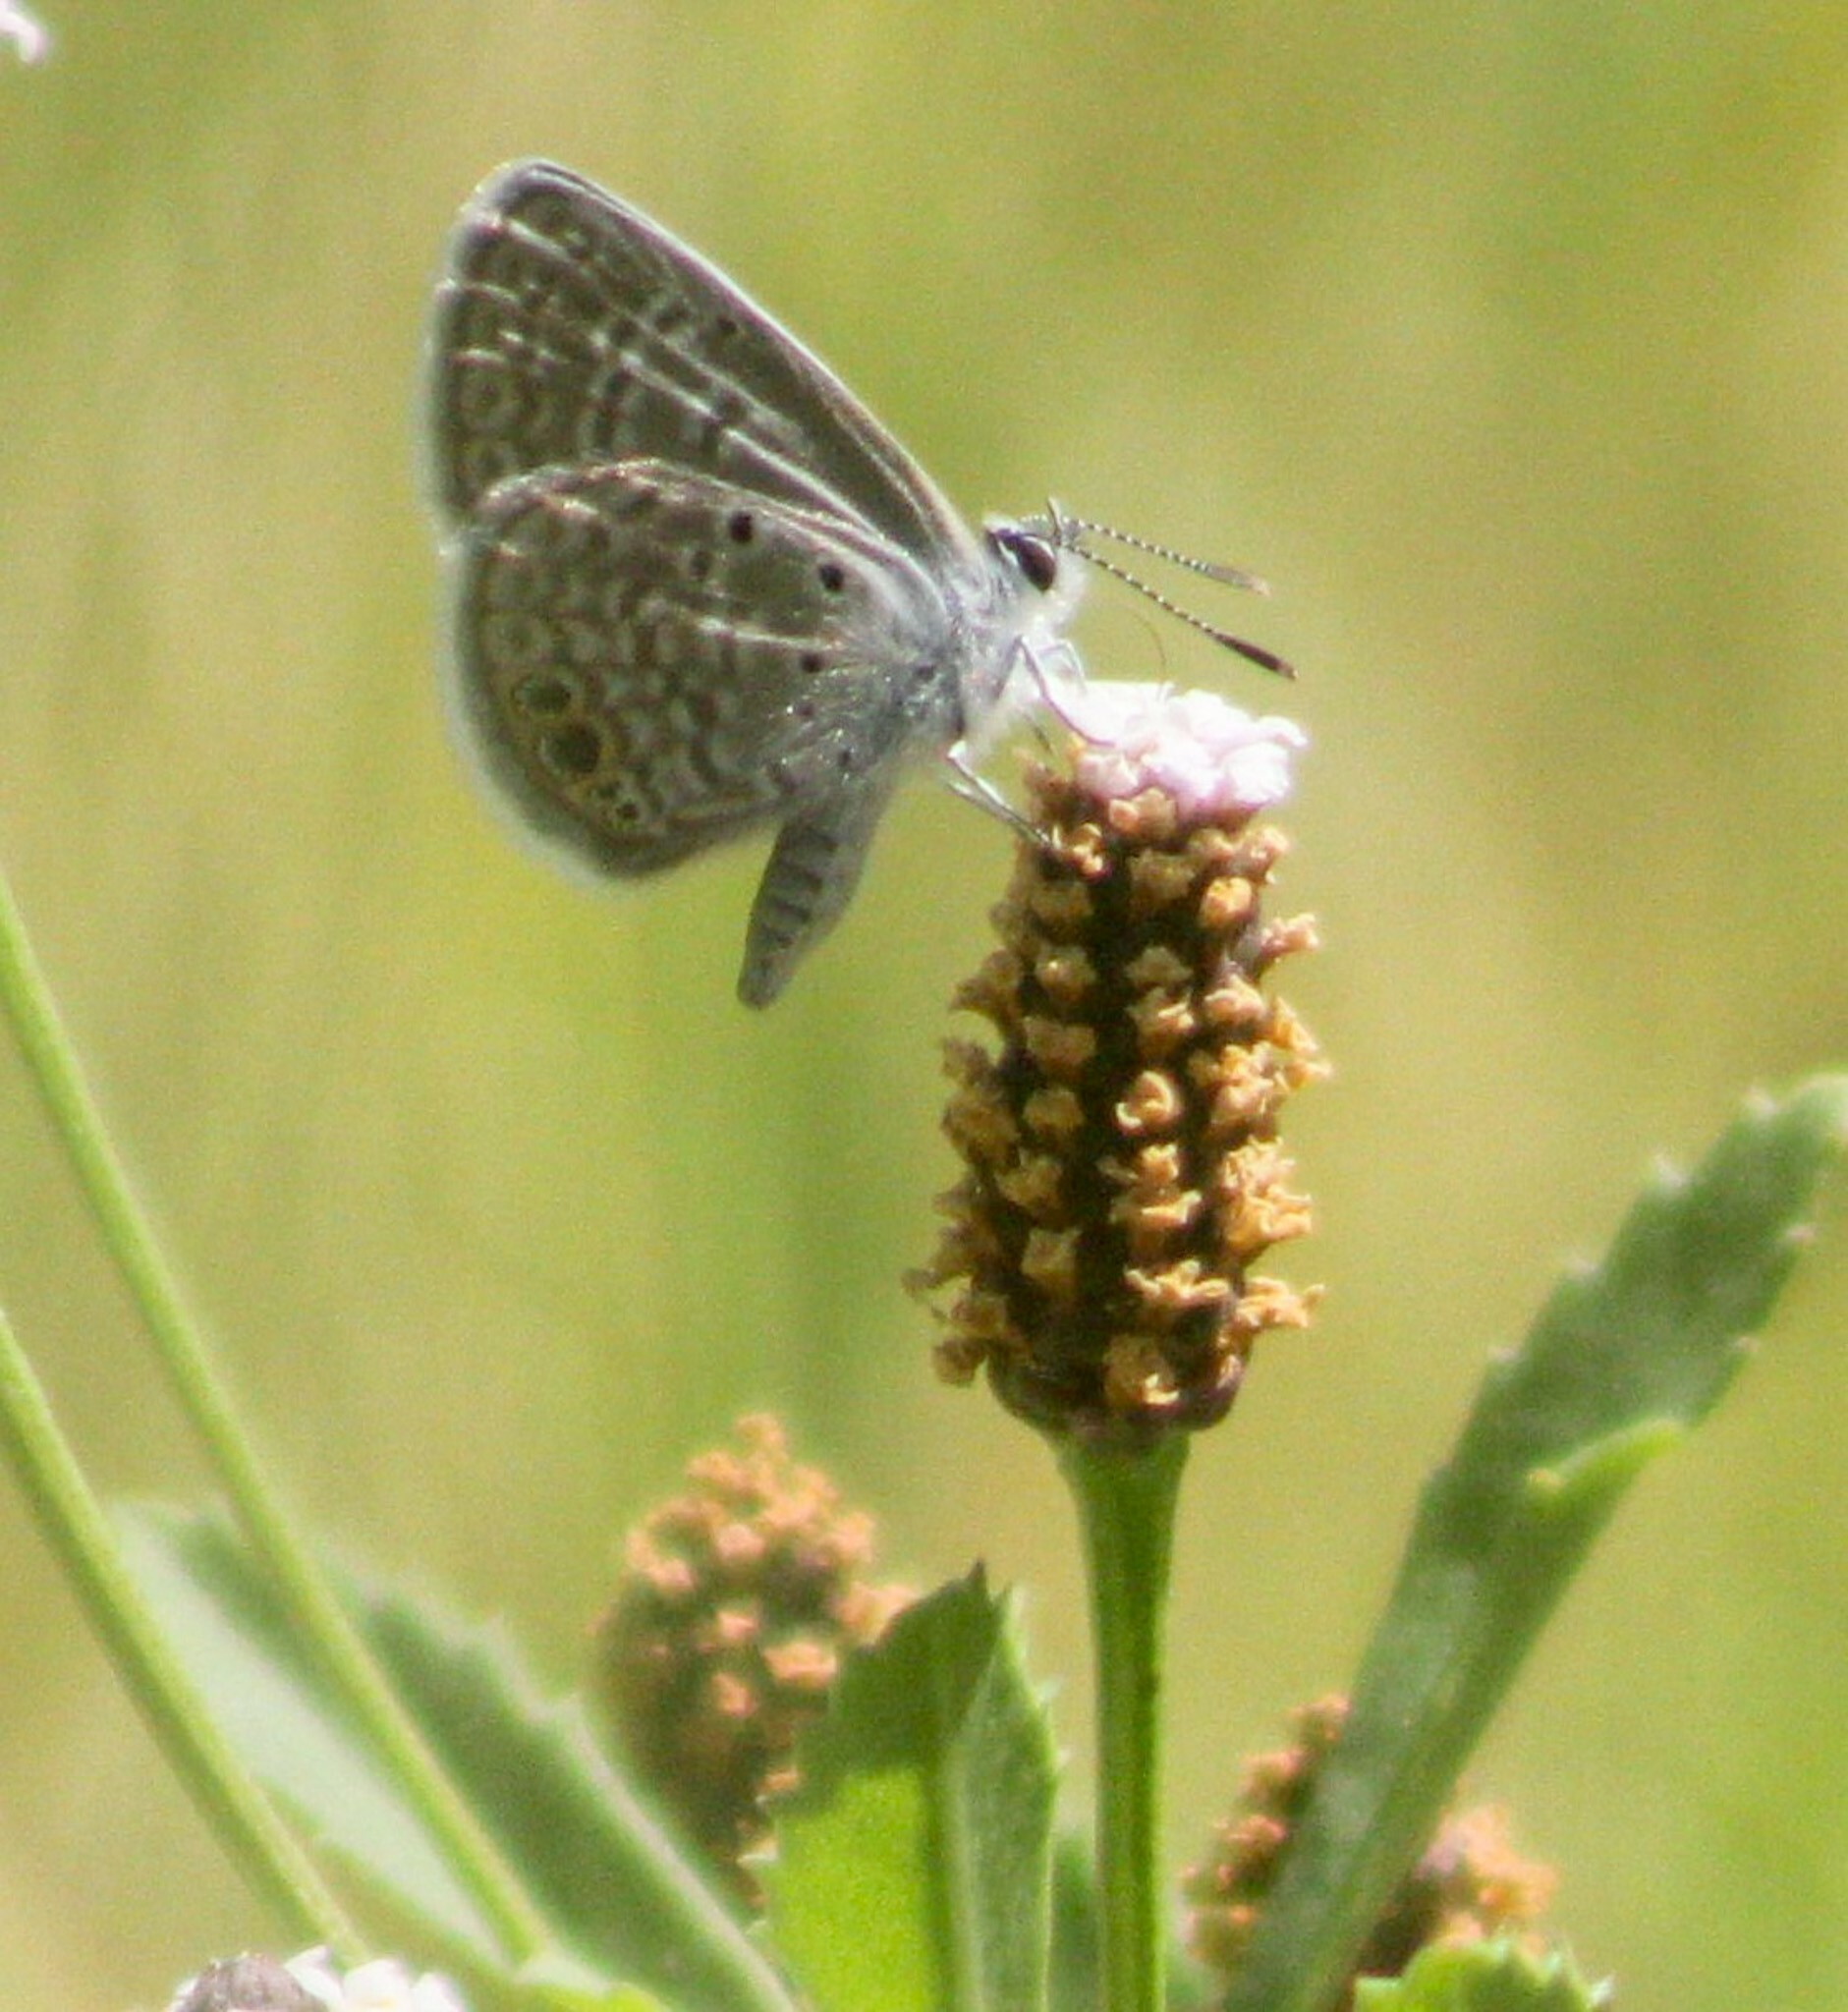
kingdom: Animalia
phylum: Arthropoda
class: Insecta
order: Lepidoptera
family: Lycaenidae
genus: Hemiargus
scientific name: Hemiargus ceraunus
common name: Ceraunus blue
